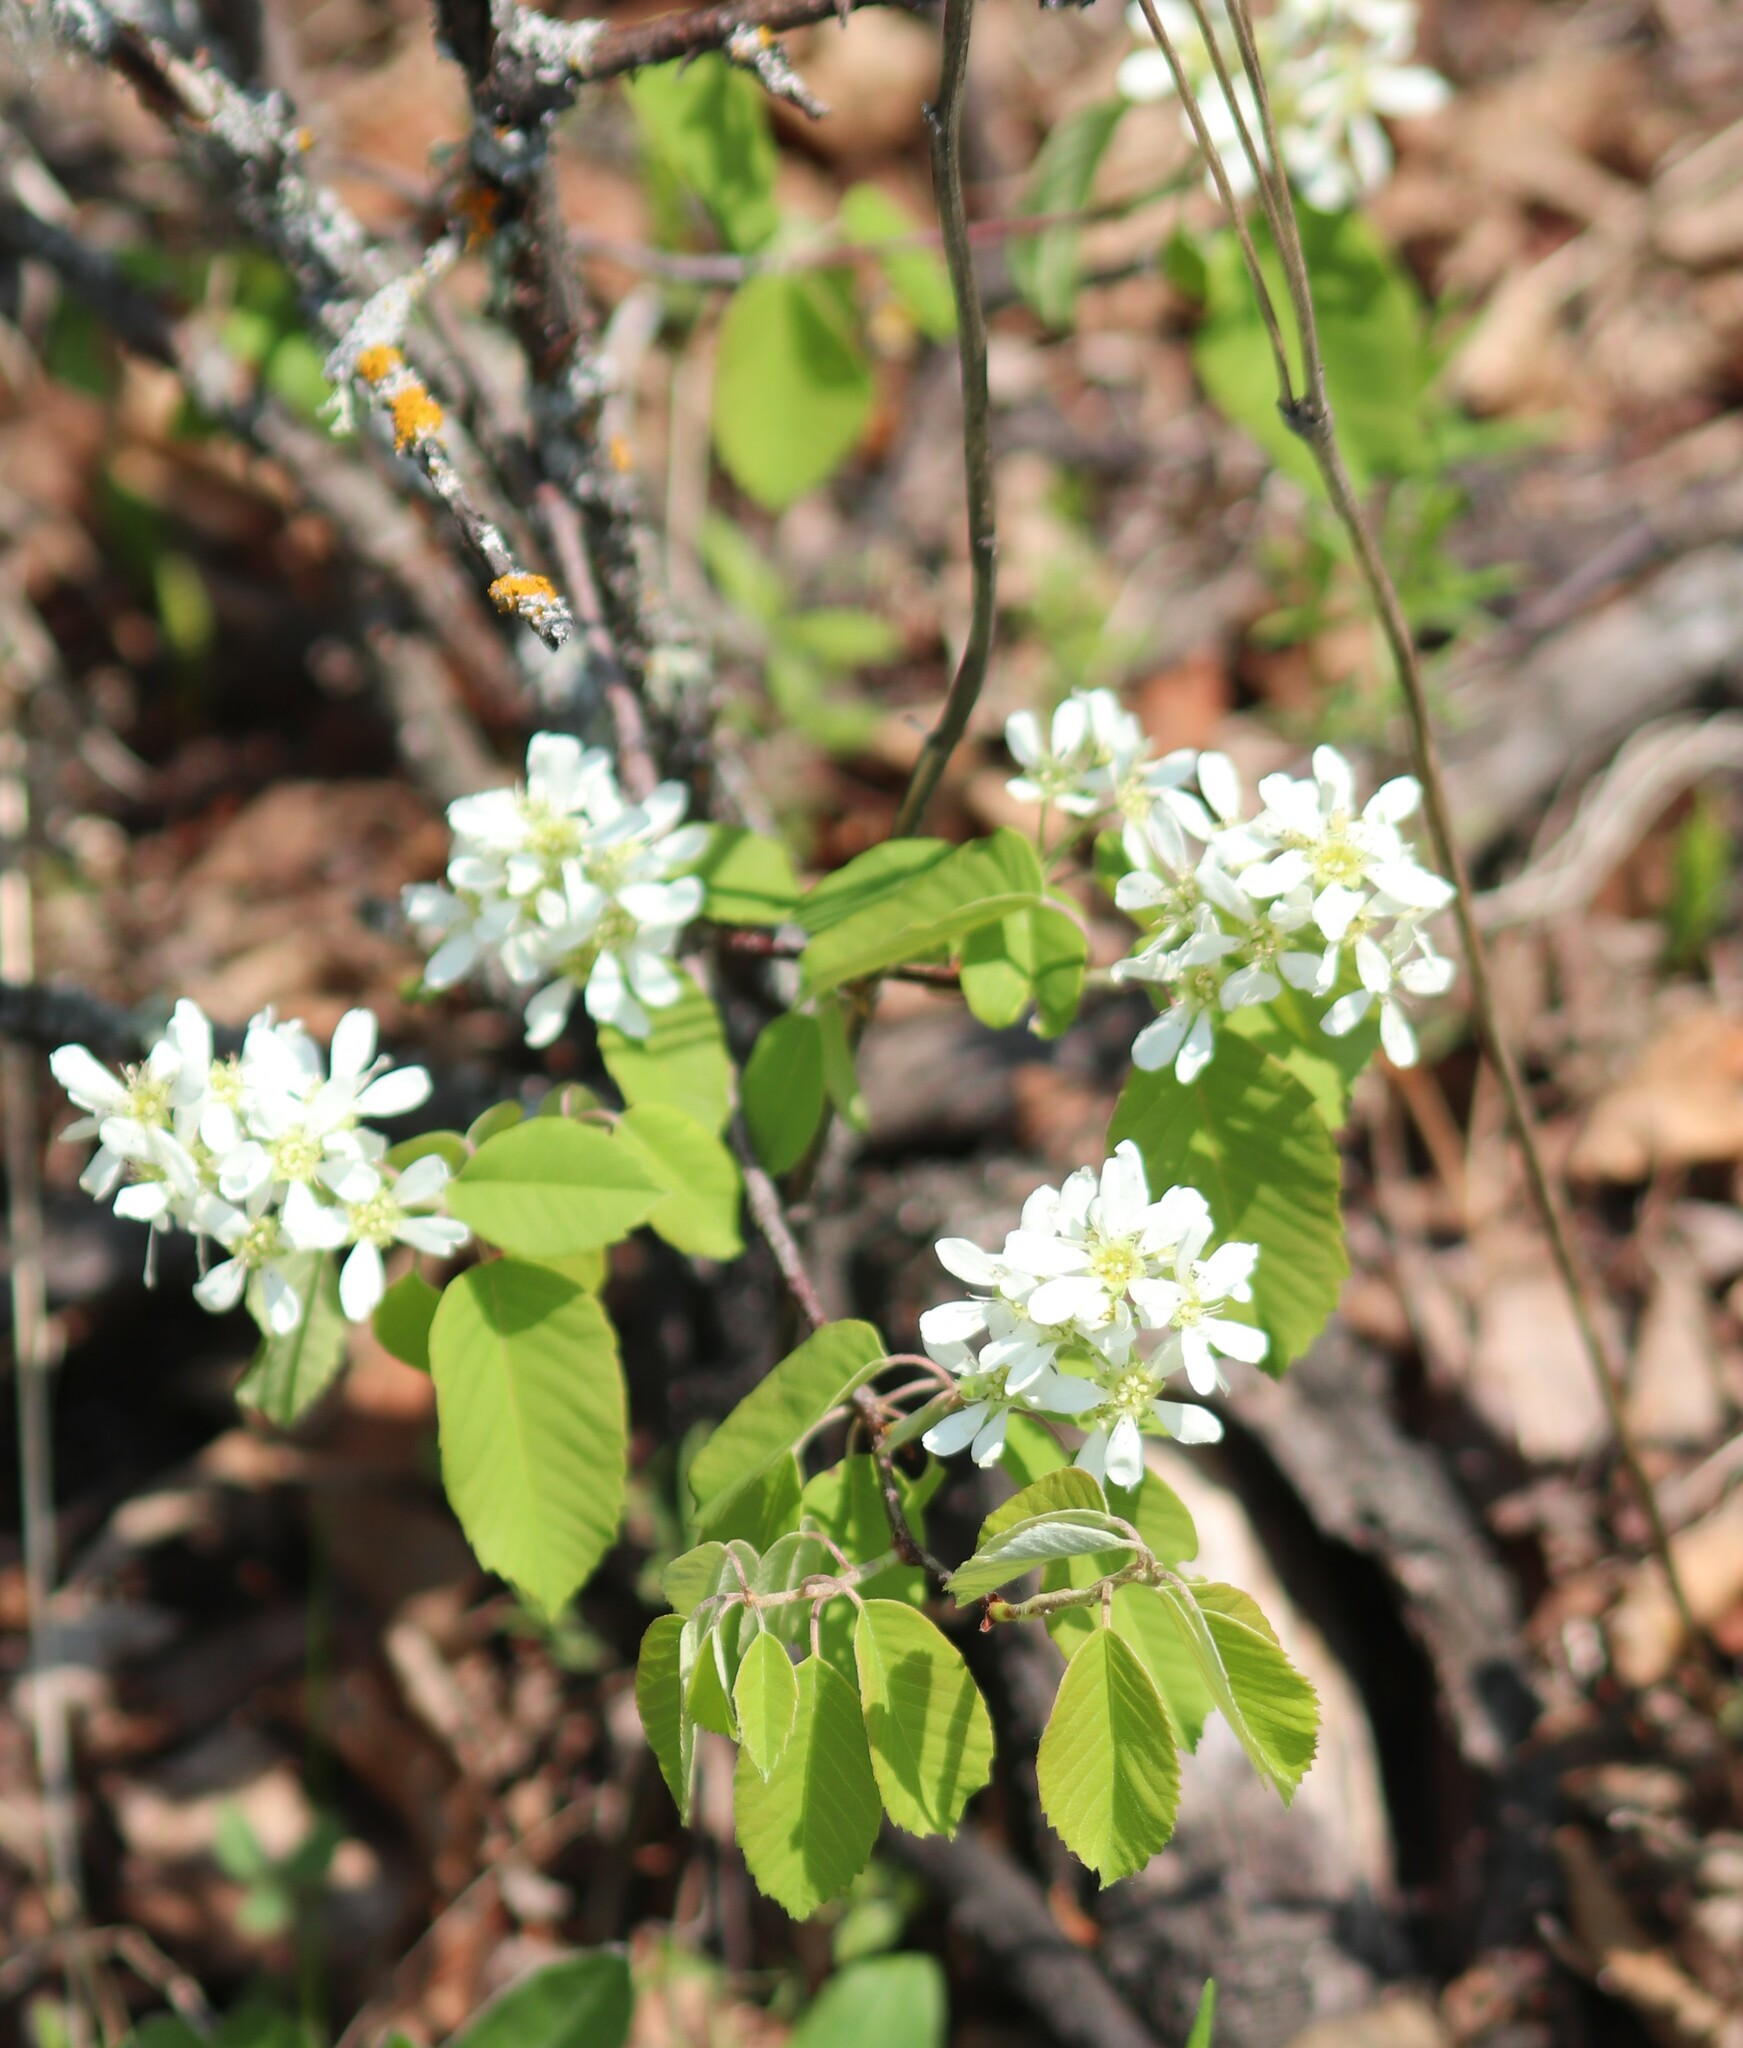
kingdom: Plantae
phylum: Tracheophyta
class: Magnoliopsida
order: Rosales
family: Rosaceae
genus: Amelanchier
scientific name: Amelanchier alnifolia
